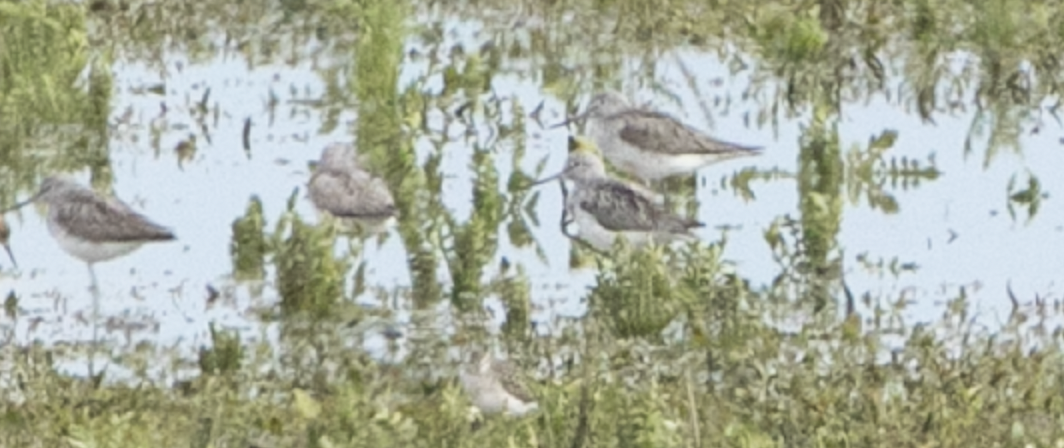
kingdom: Animalia
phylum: Chordata
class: Aves
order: Charadriiformes
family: Scolopacidae
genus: Tringa
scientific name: Tringa nebularia
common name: Common greenshank
